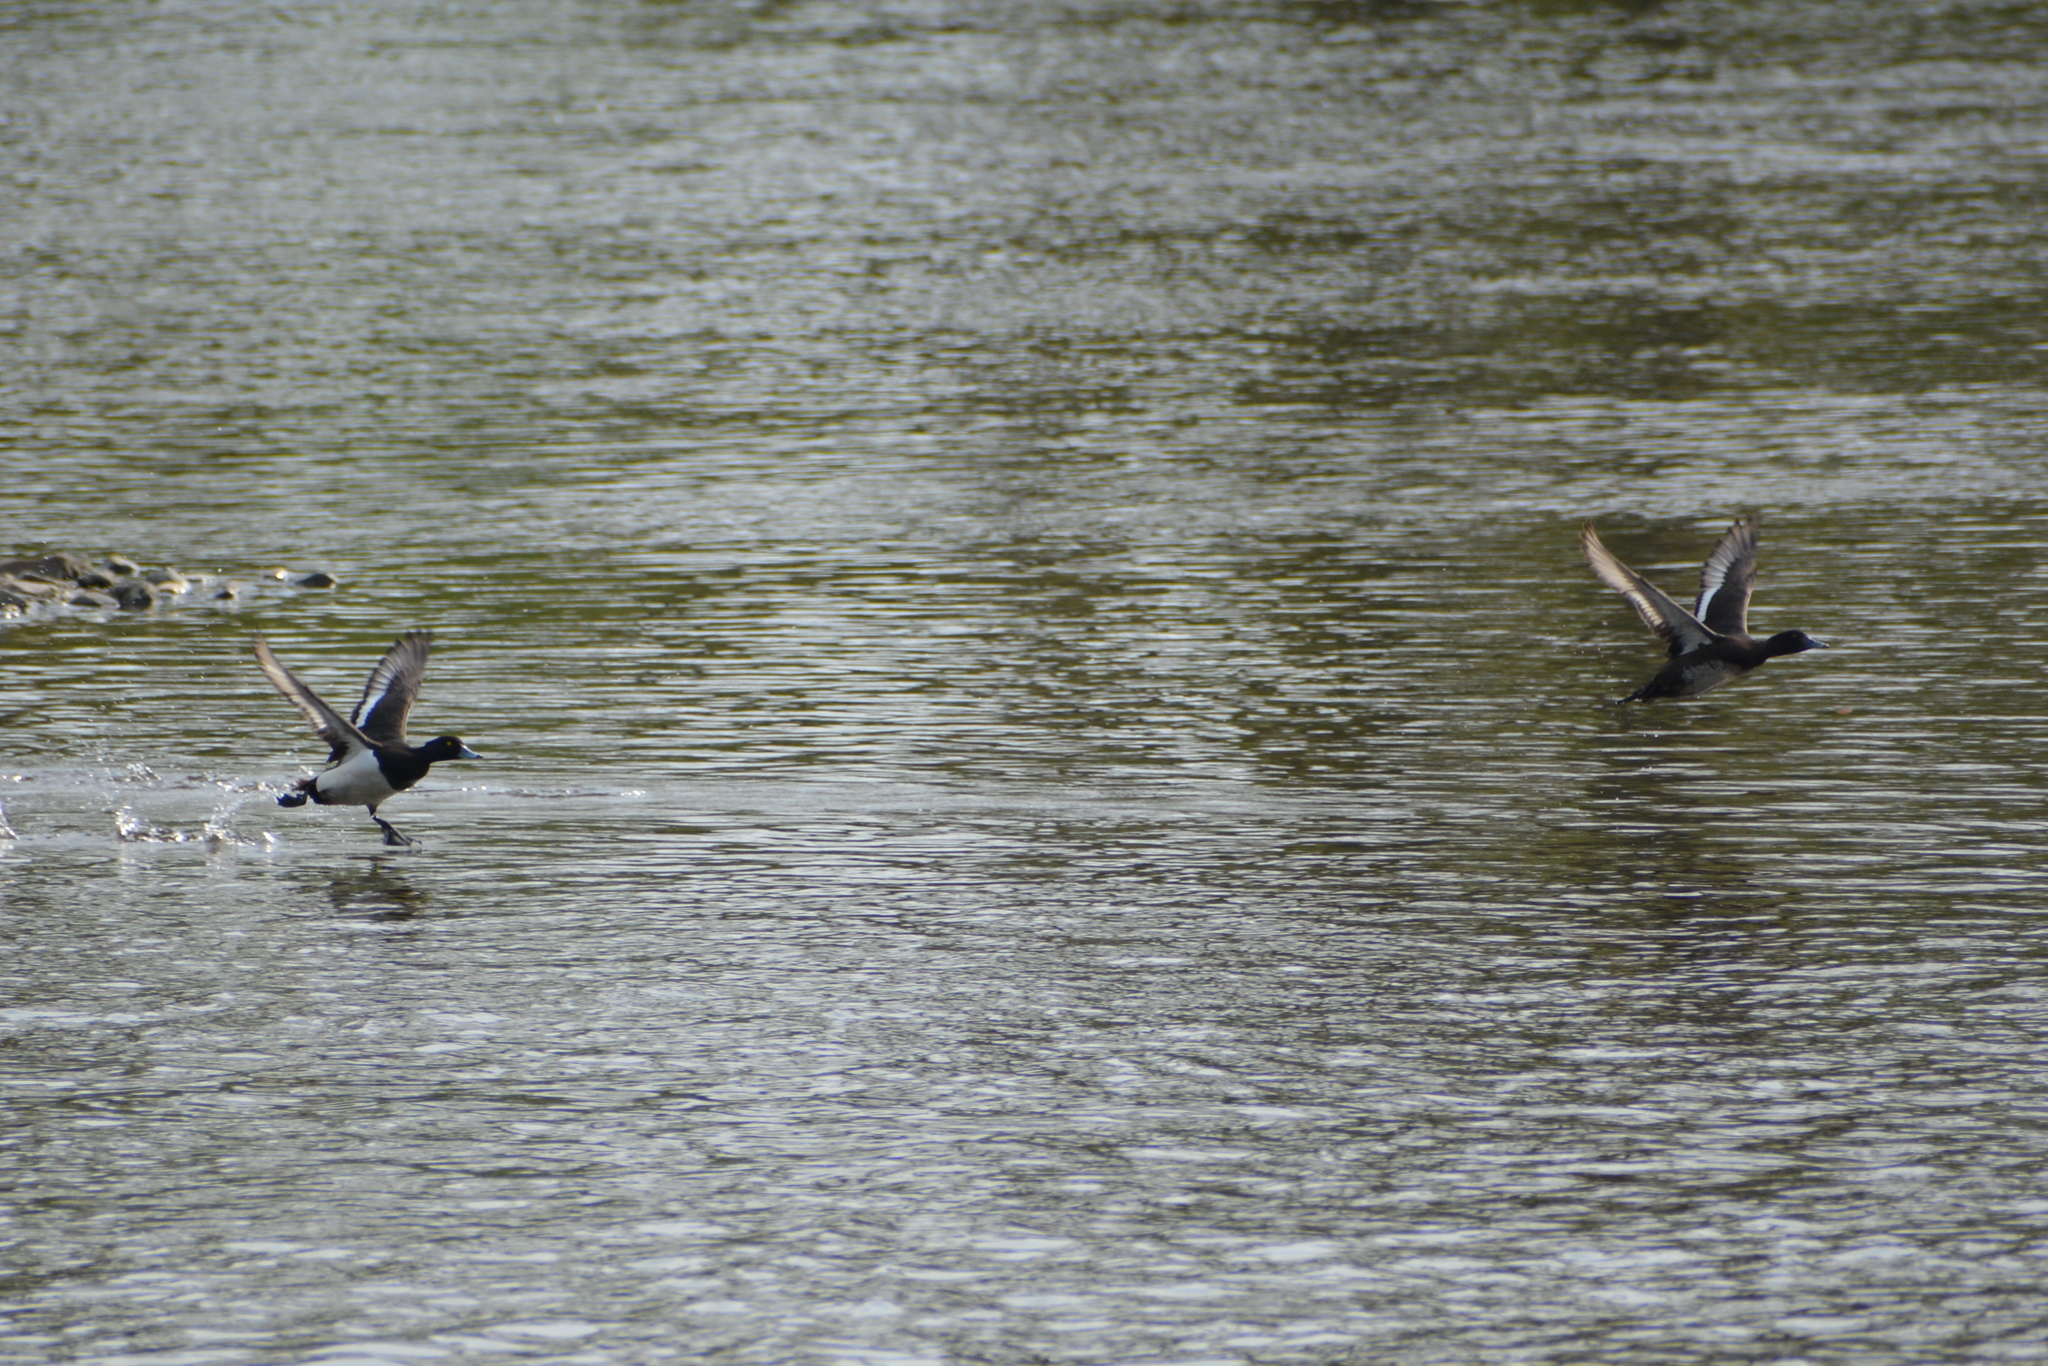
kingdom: Animalia
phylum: Chordata
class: Aves
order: Anseriformes
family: Anatidae
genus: Aythya
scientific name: Aythya fuligula
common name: Tufted duck
